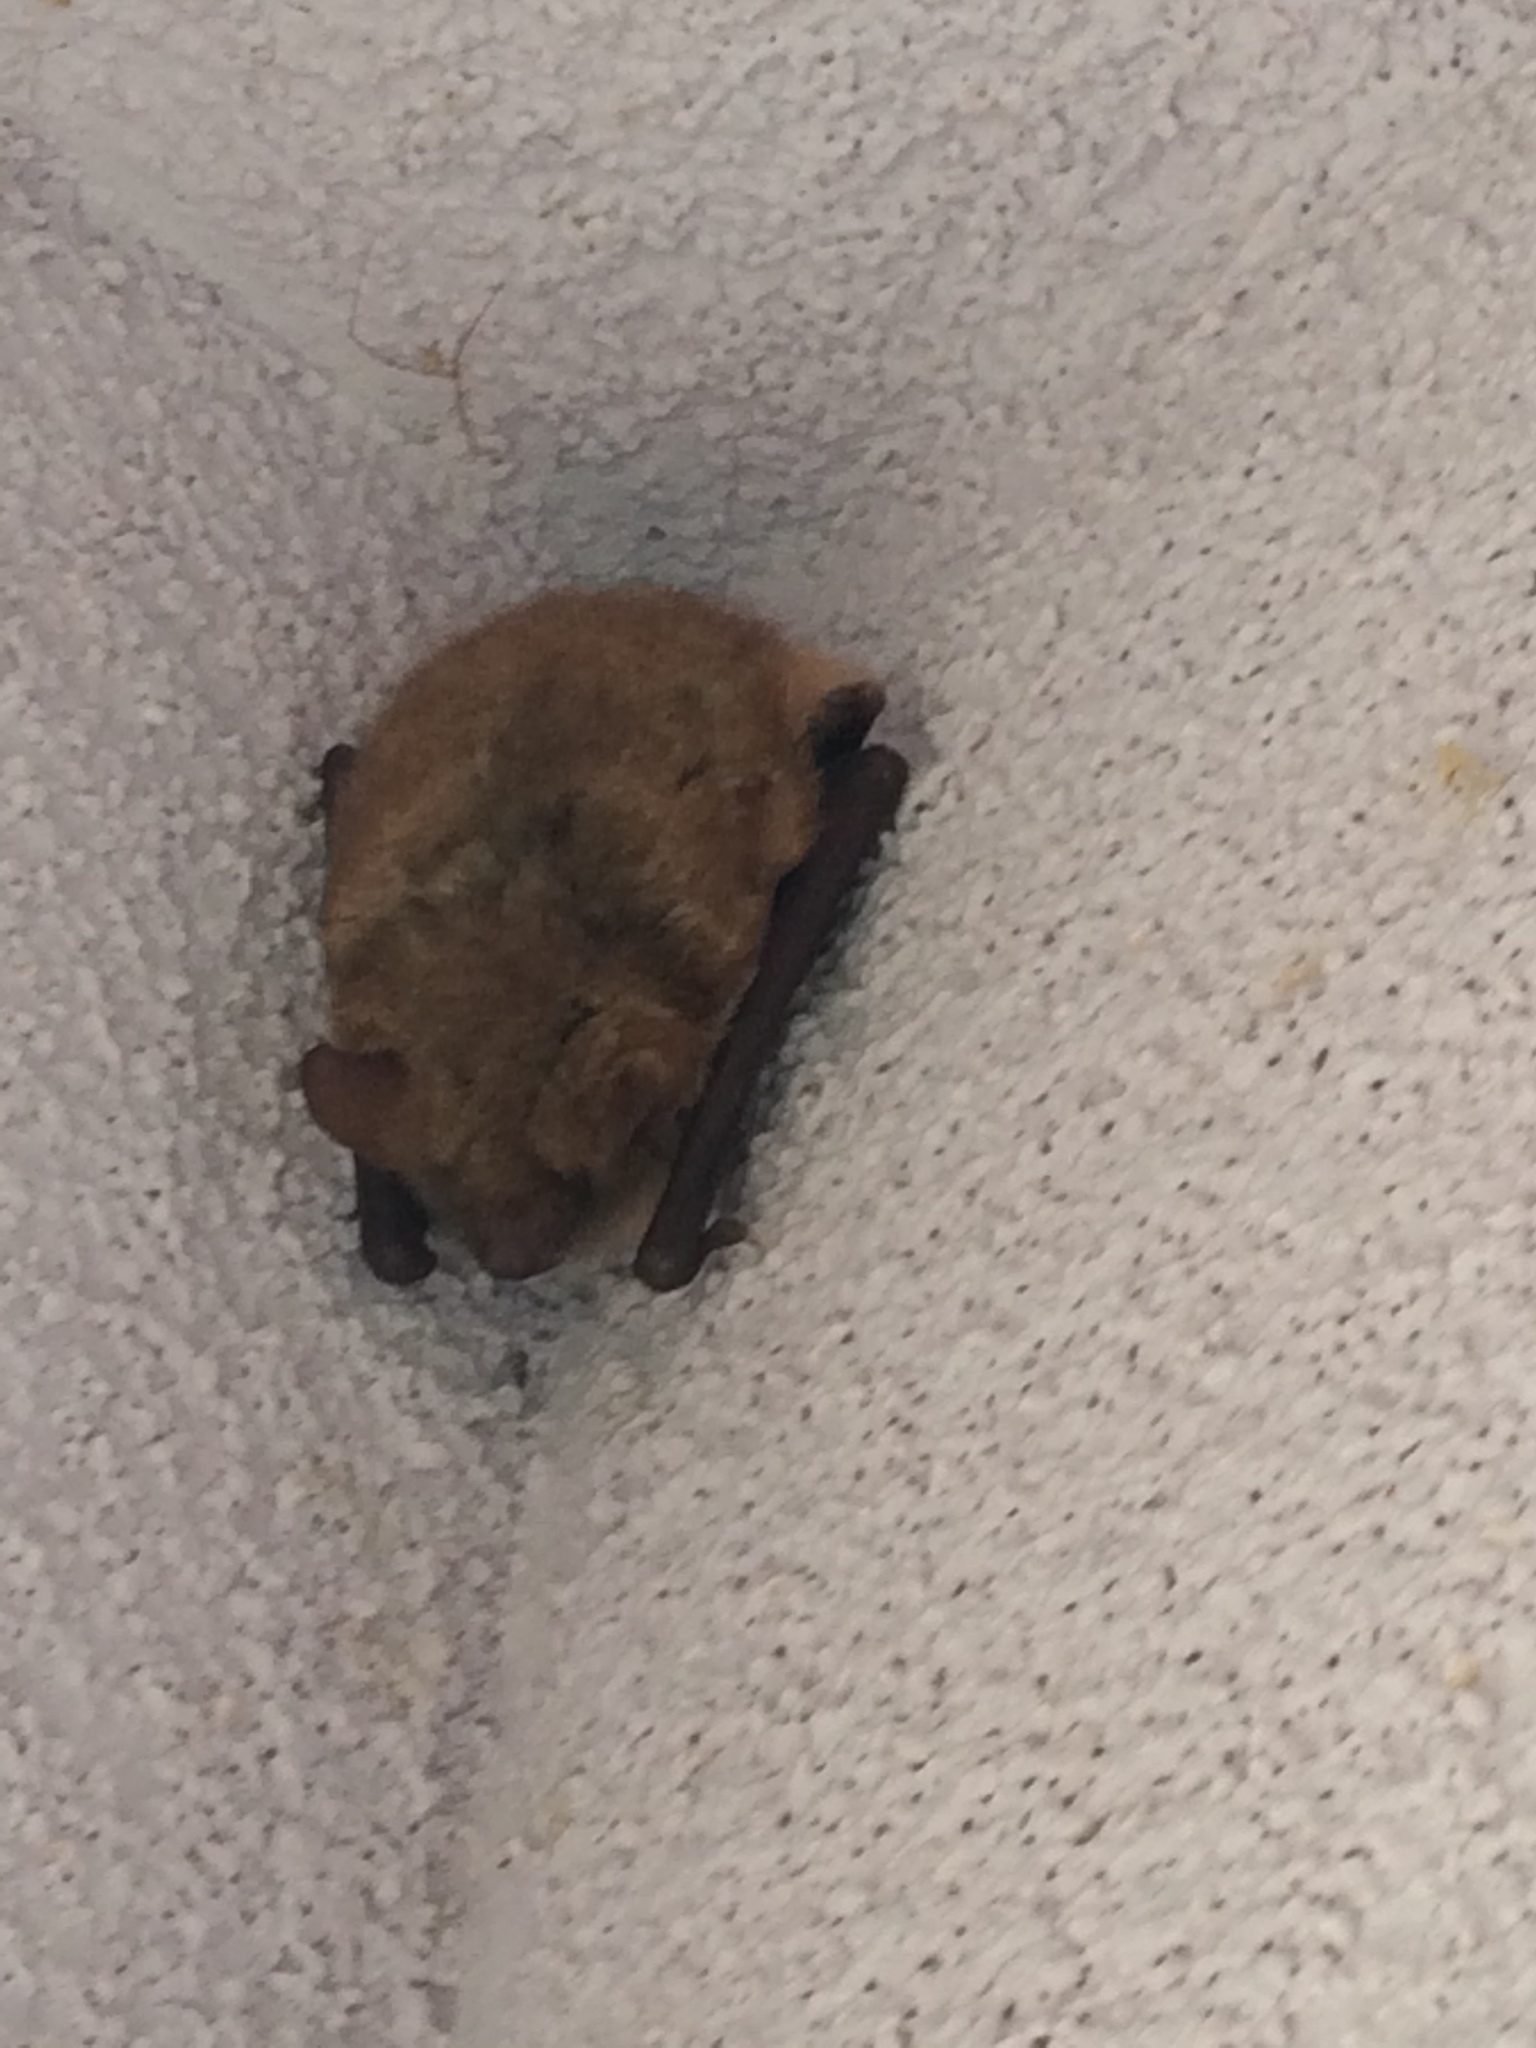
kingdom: Animalia
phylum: Chordata
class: Mammalia
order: Chiroptera
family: Vespertilionidae
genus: Myotis
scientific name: Myotis emarginatus
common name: Geoffroy's bat
